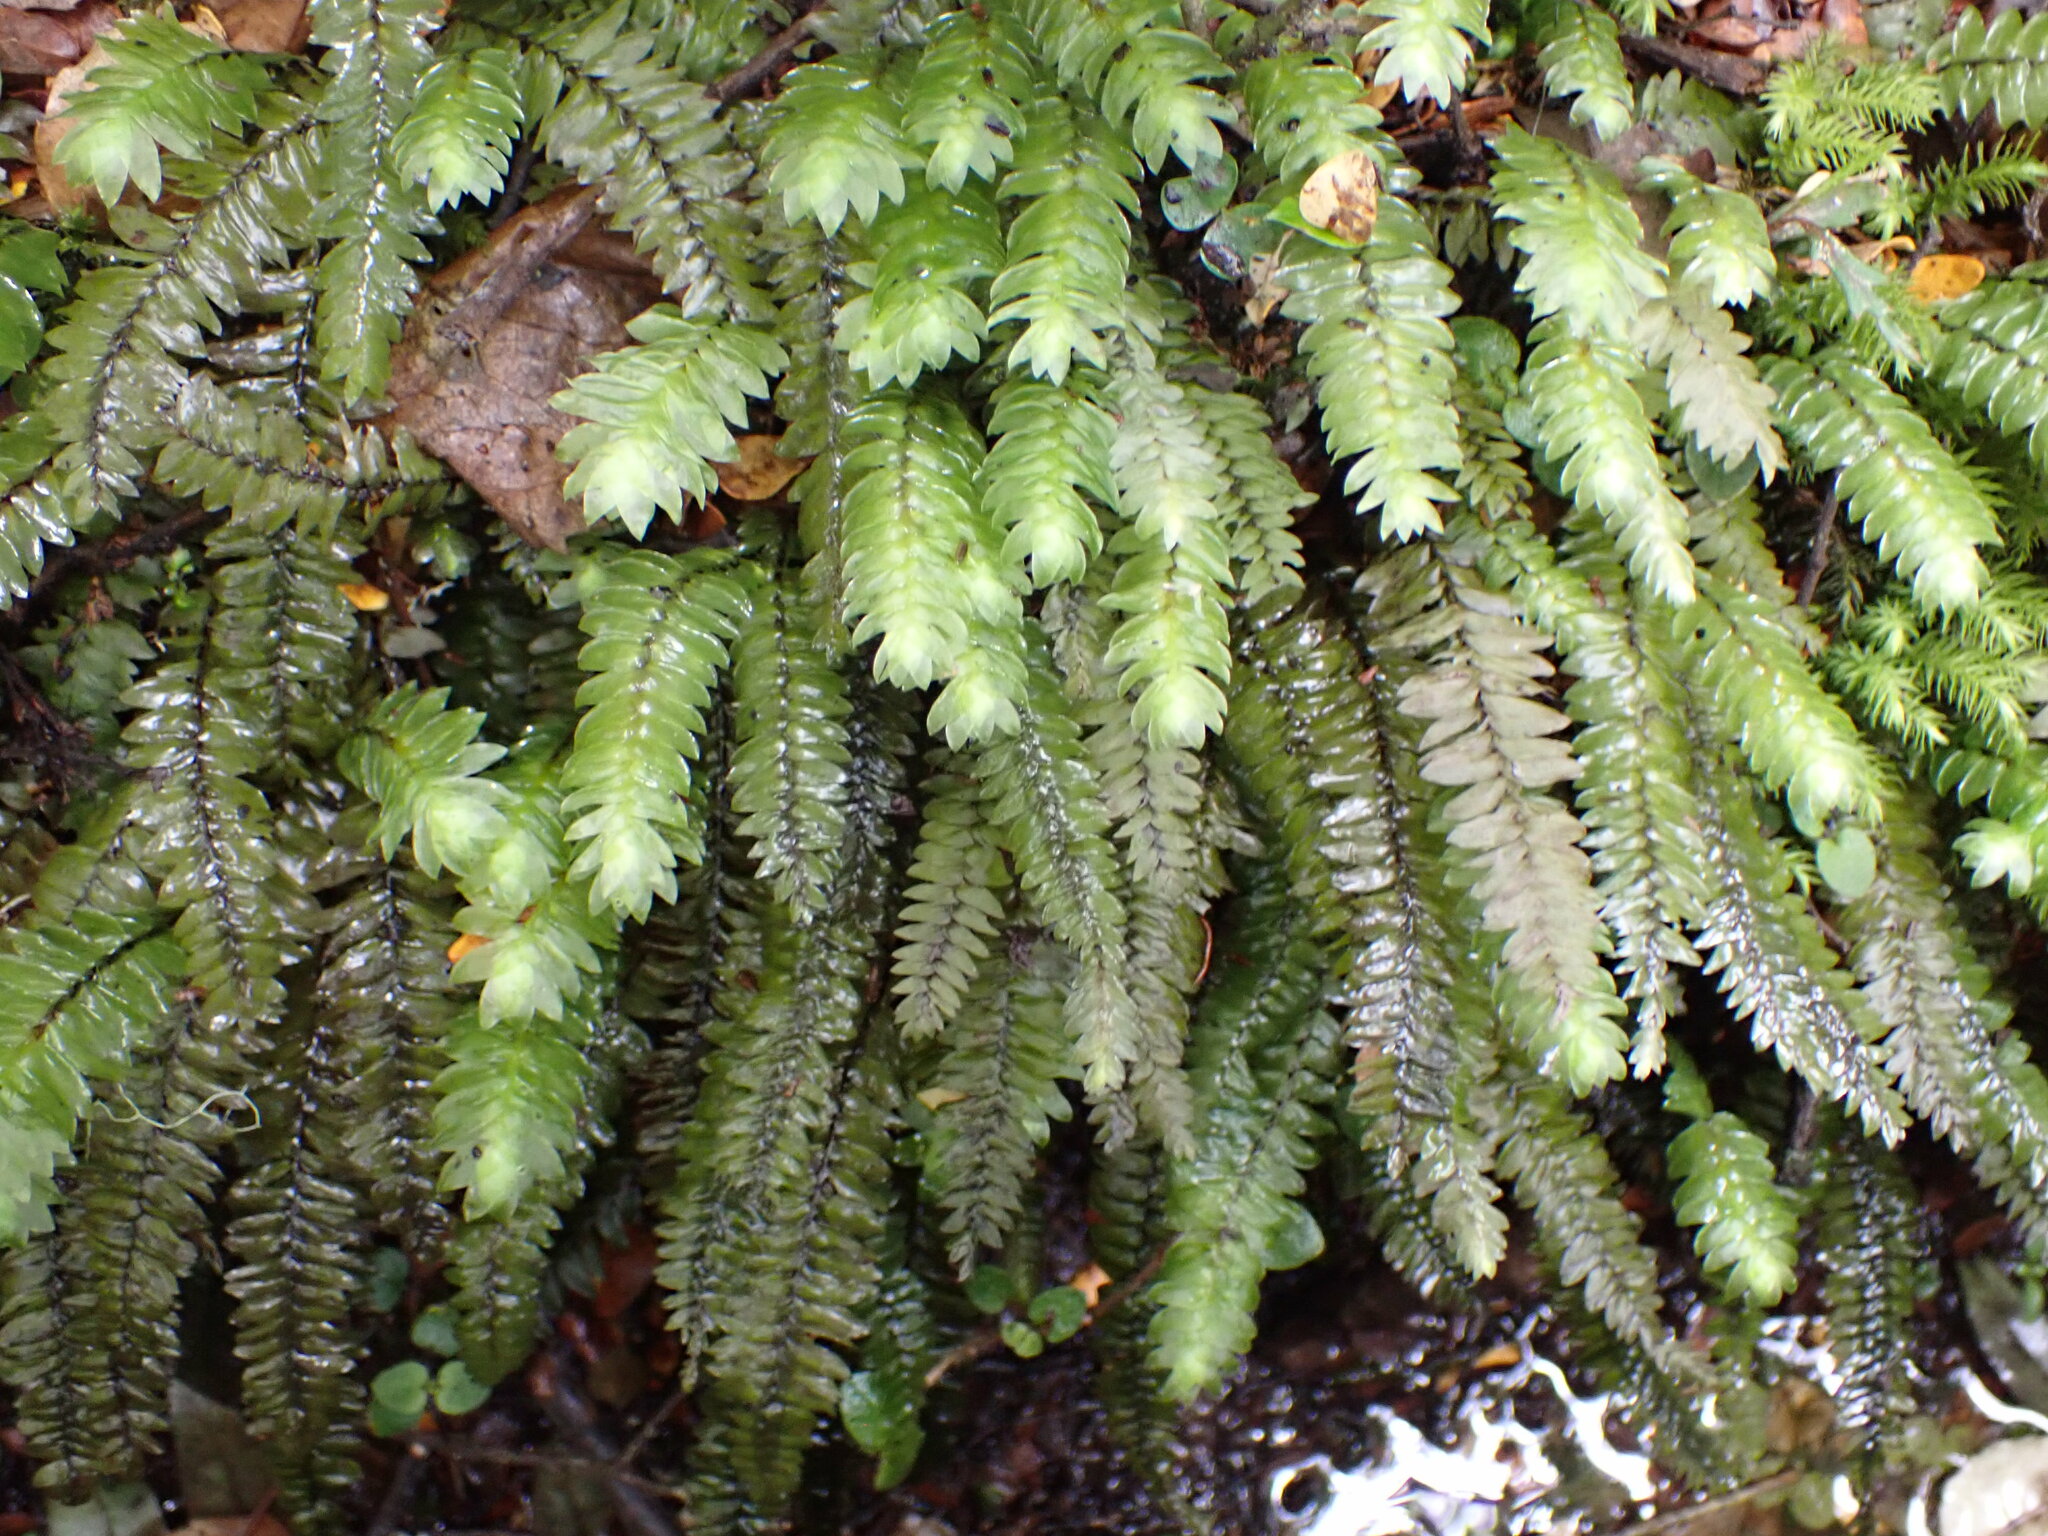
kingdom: Plantae
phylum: Bryophyta
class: Bryopsida
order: Hypopterygiales
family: Hypopterygiaceae
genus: Cyathophorum
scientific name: Cyathophorum bulbosum
